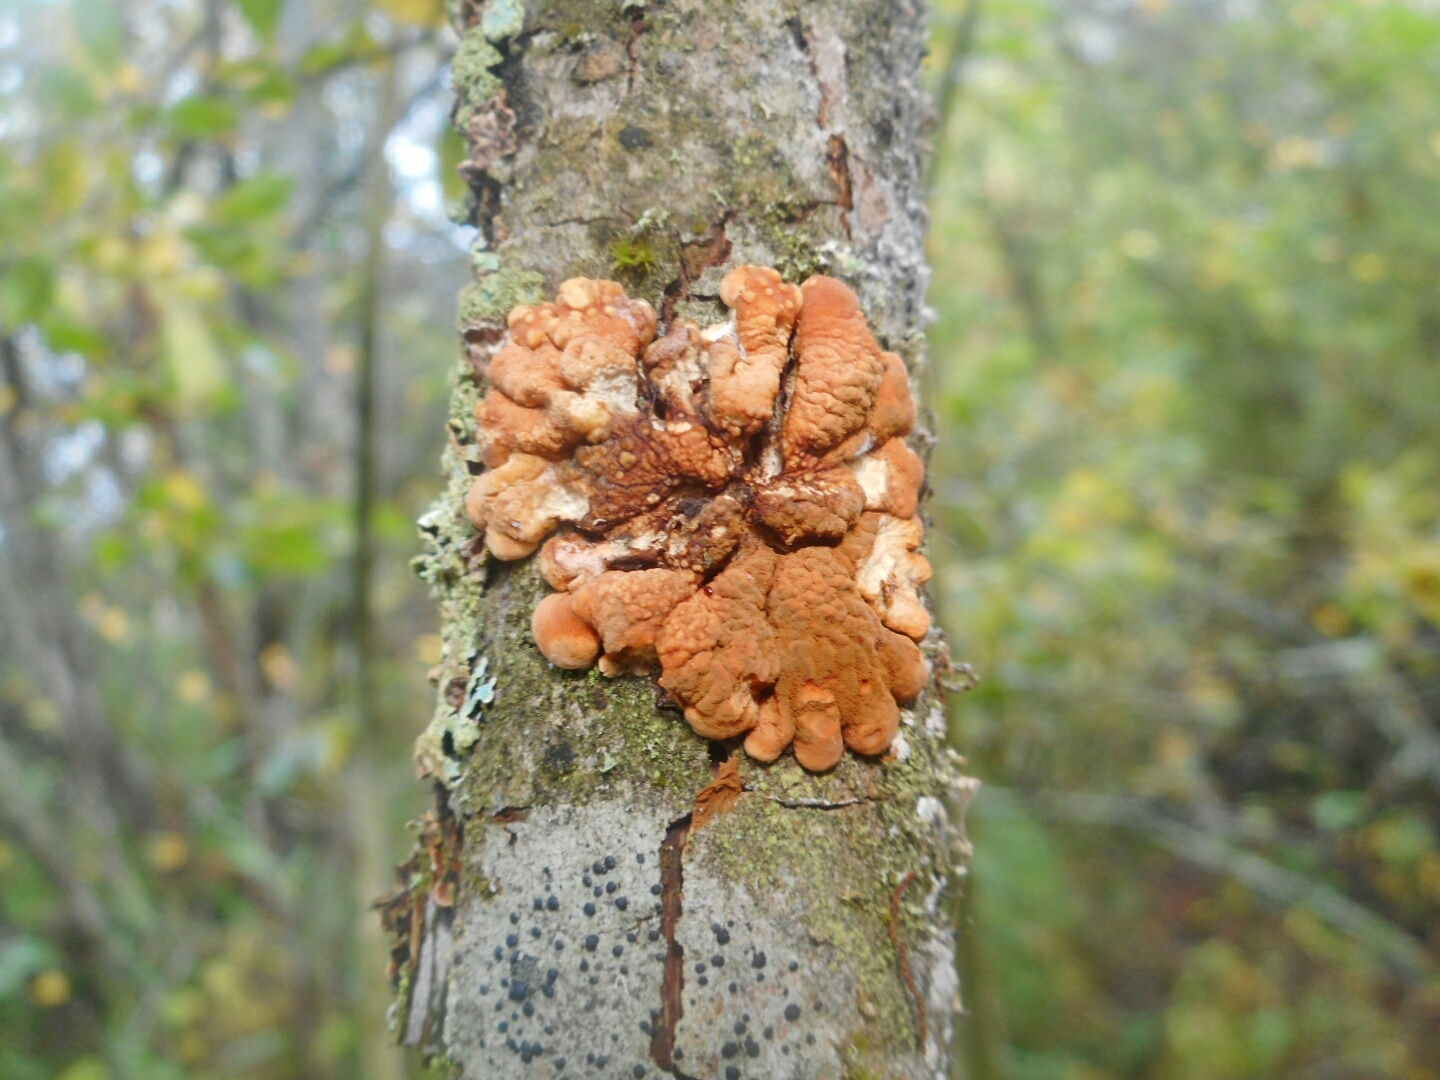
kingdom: Fungi
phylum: Ascomycota
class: Sordariomycetes
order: Hypocreales
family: Hypocreaceae
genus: Hypocreopsis
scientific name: Hypocreopsis lichenoides
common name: Willow gloves
